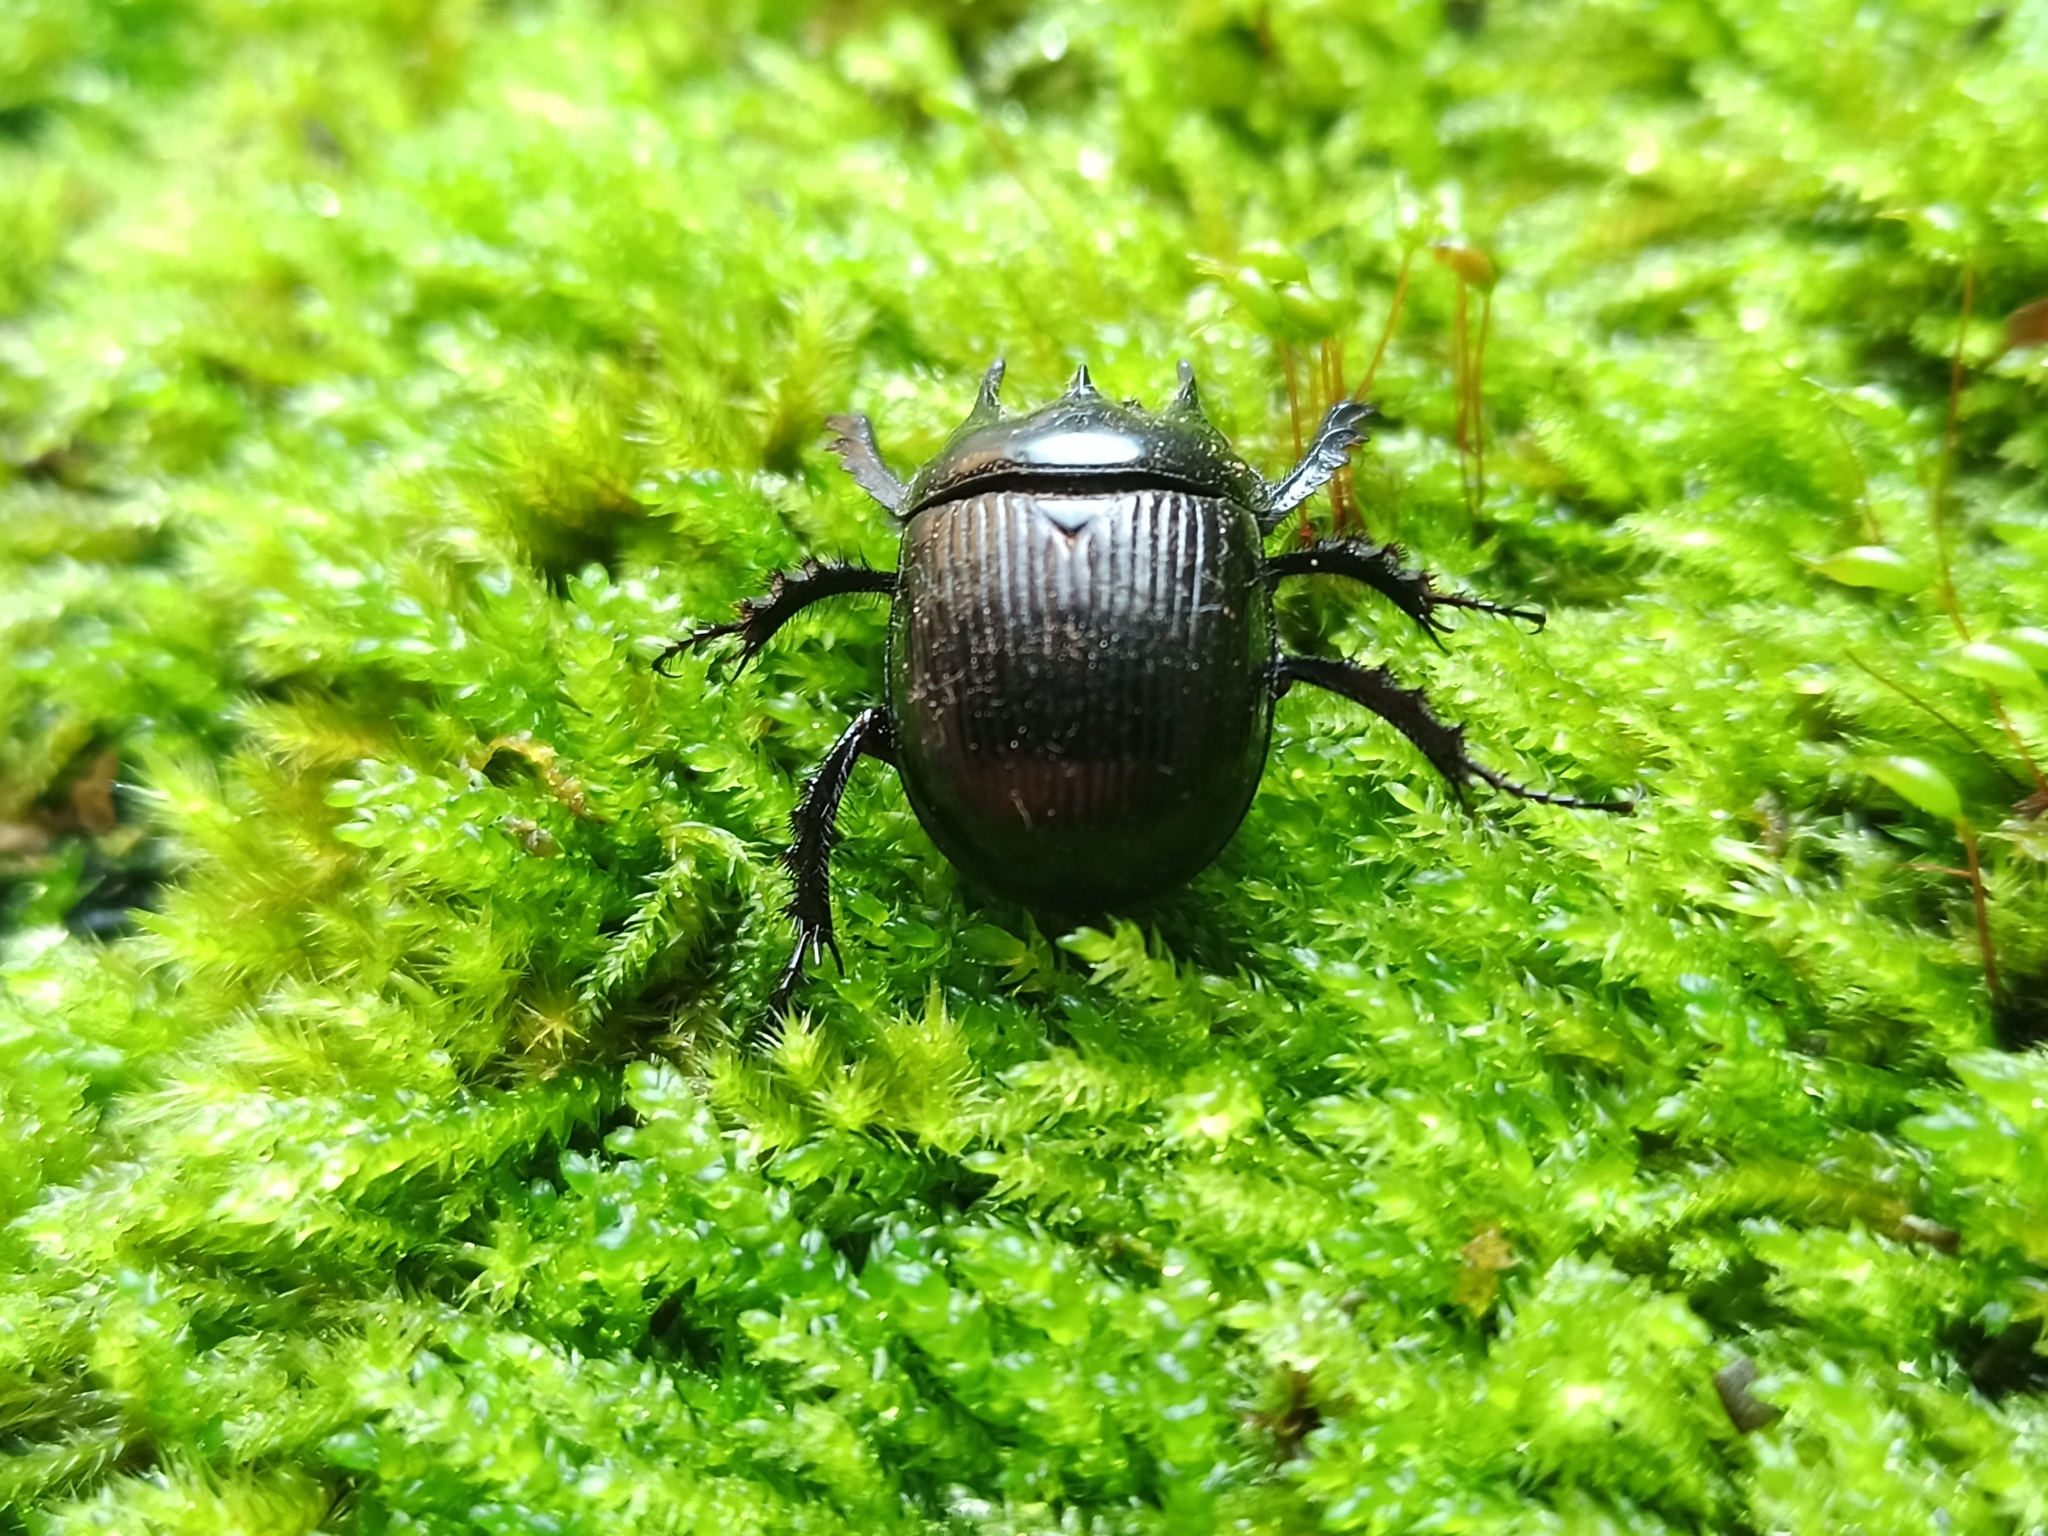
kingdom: Animalia
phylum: Arthropoda
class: Insecta
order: Coleoptera
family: Geotrupidae
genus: Typhaeus
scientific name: Typhaeus typhoeus
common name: Minotaur beetle
